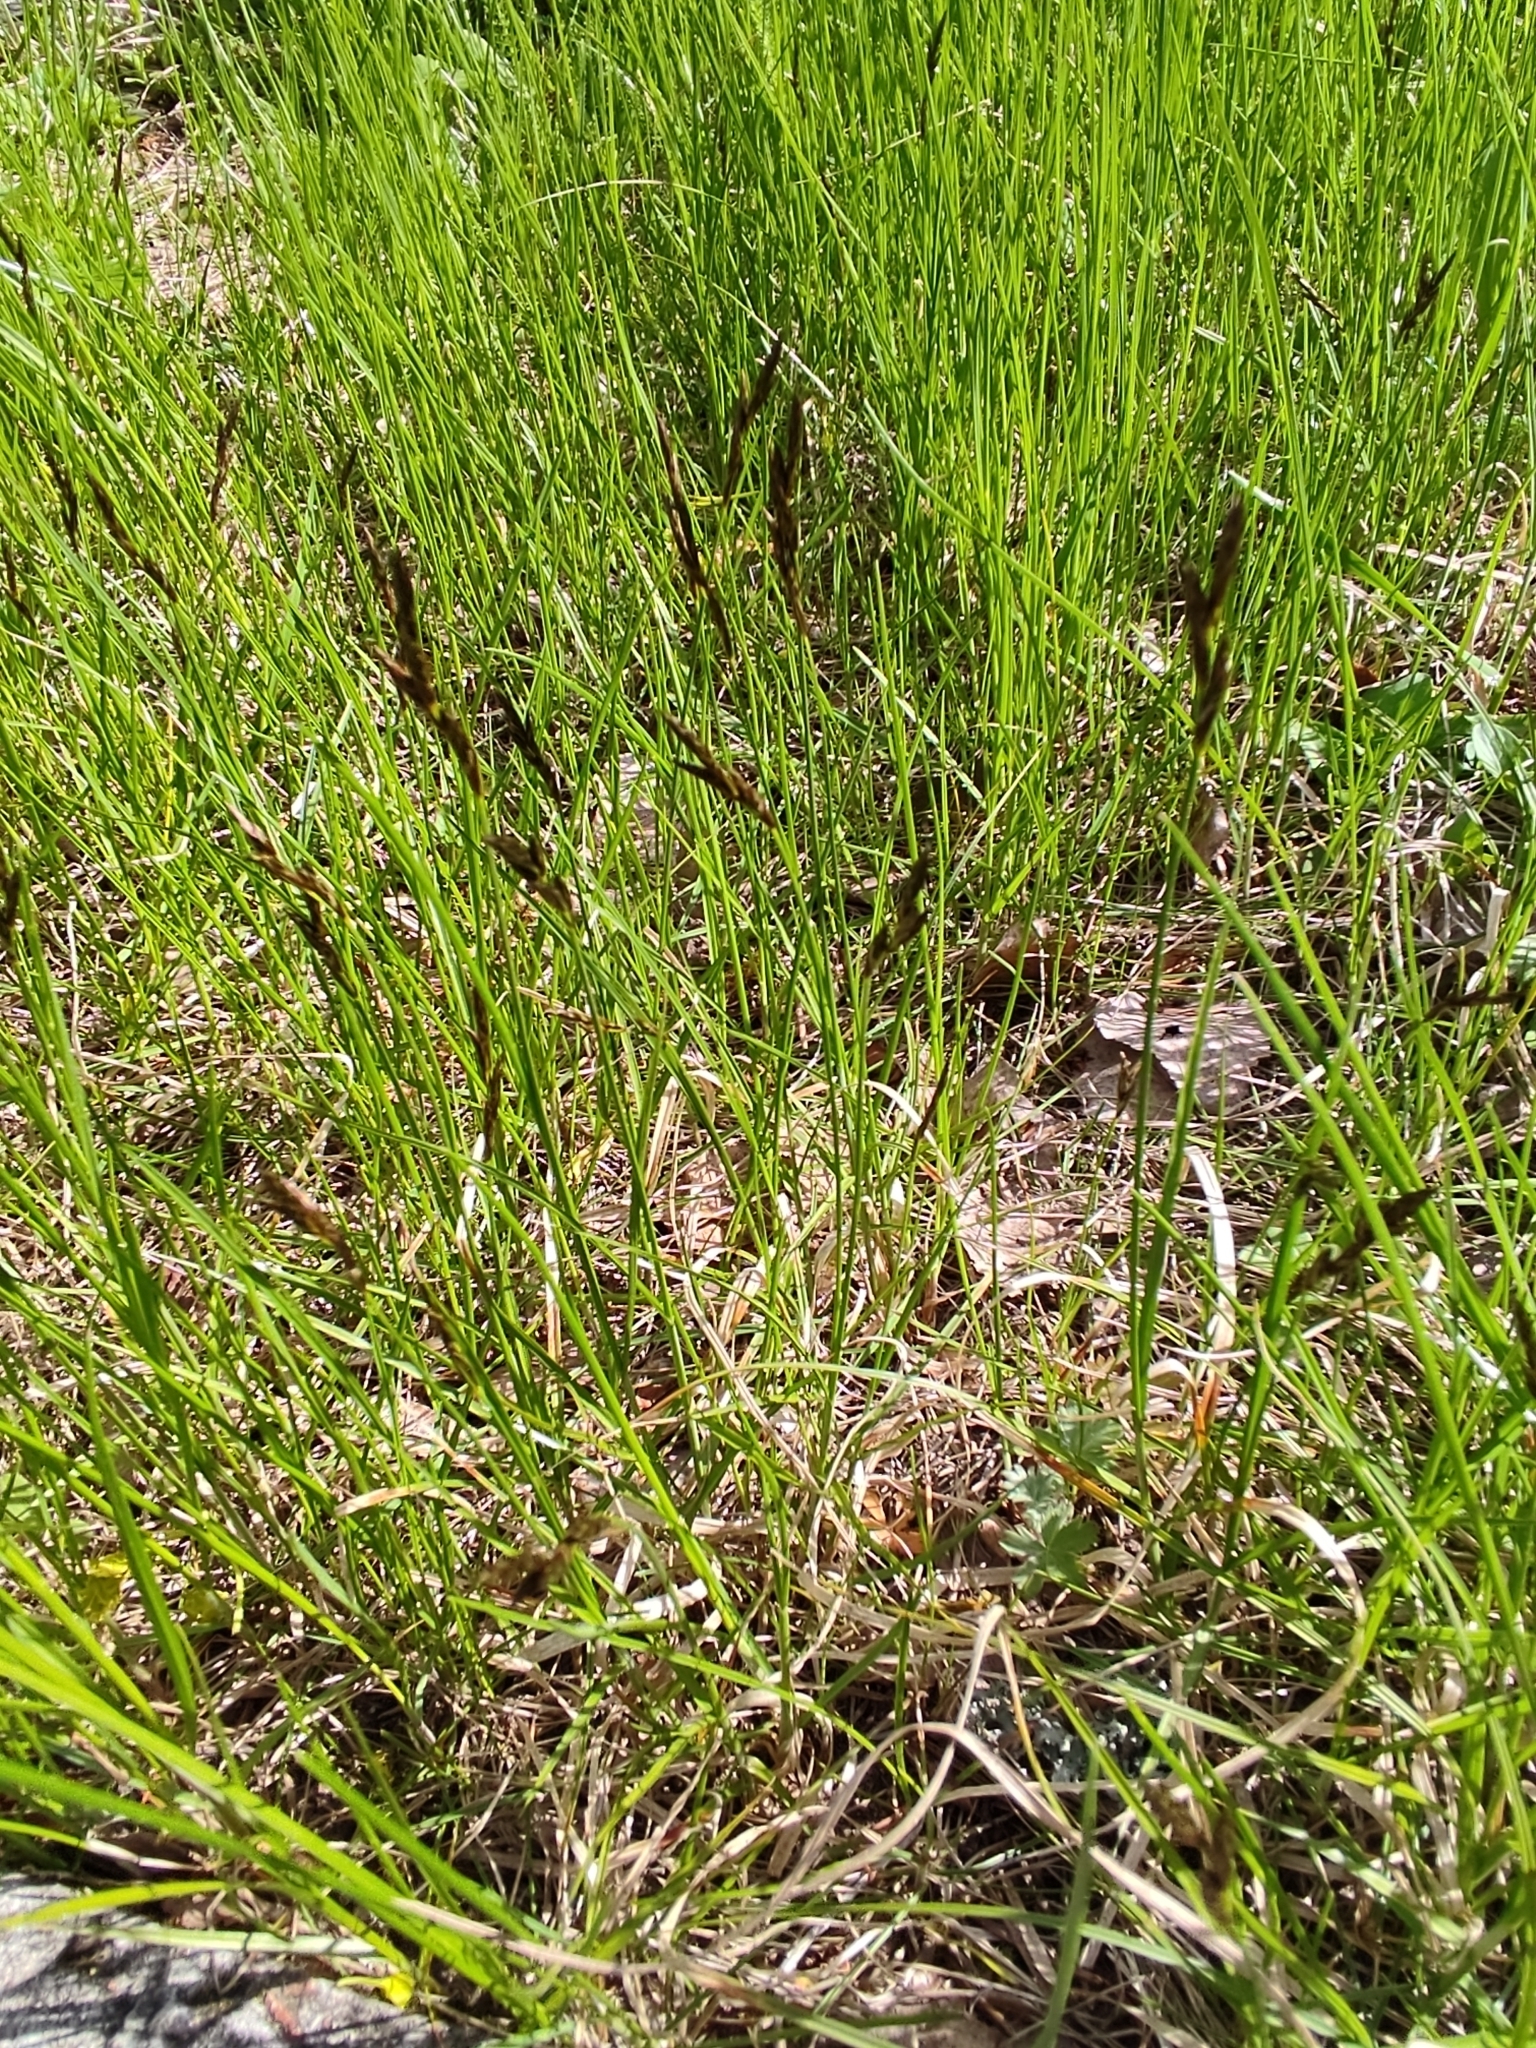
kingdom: Plantae
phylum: Tracheophyta
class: Liliopsida
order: Poales
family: Cyperaceae
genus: Carex
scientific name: Carex praecox
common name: Early sedge
